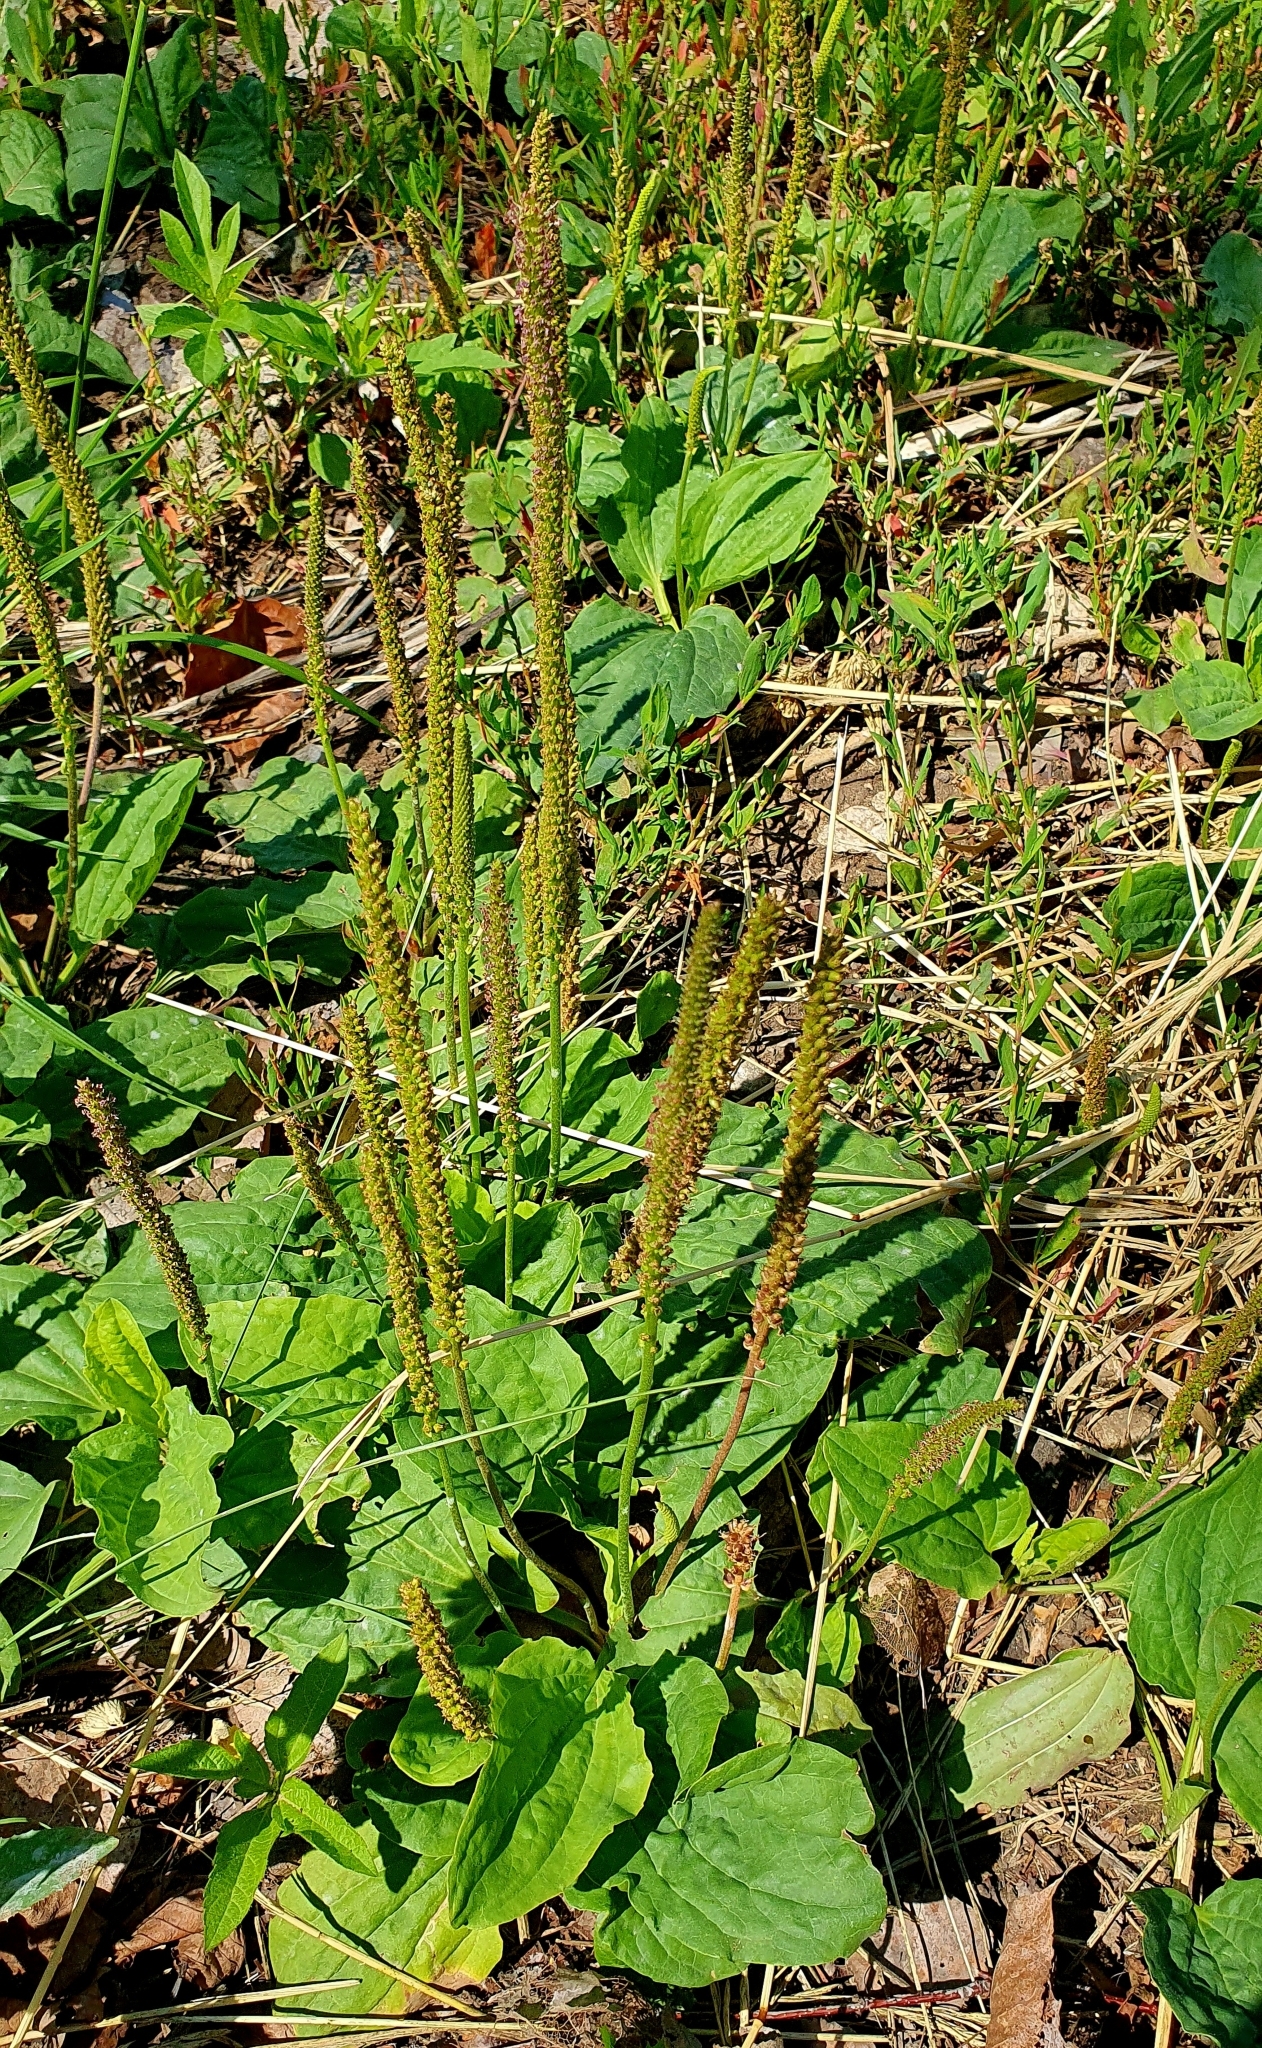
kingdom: Plantae
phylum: Tracheophyta
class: Magnoliopsida
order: Lamiales
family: Plantaginaceae
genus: Plantago
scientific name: Plantago major
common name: Common plantain
